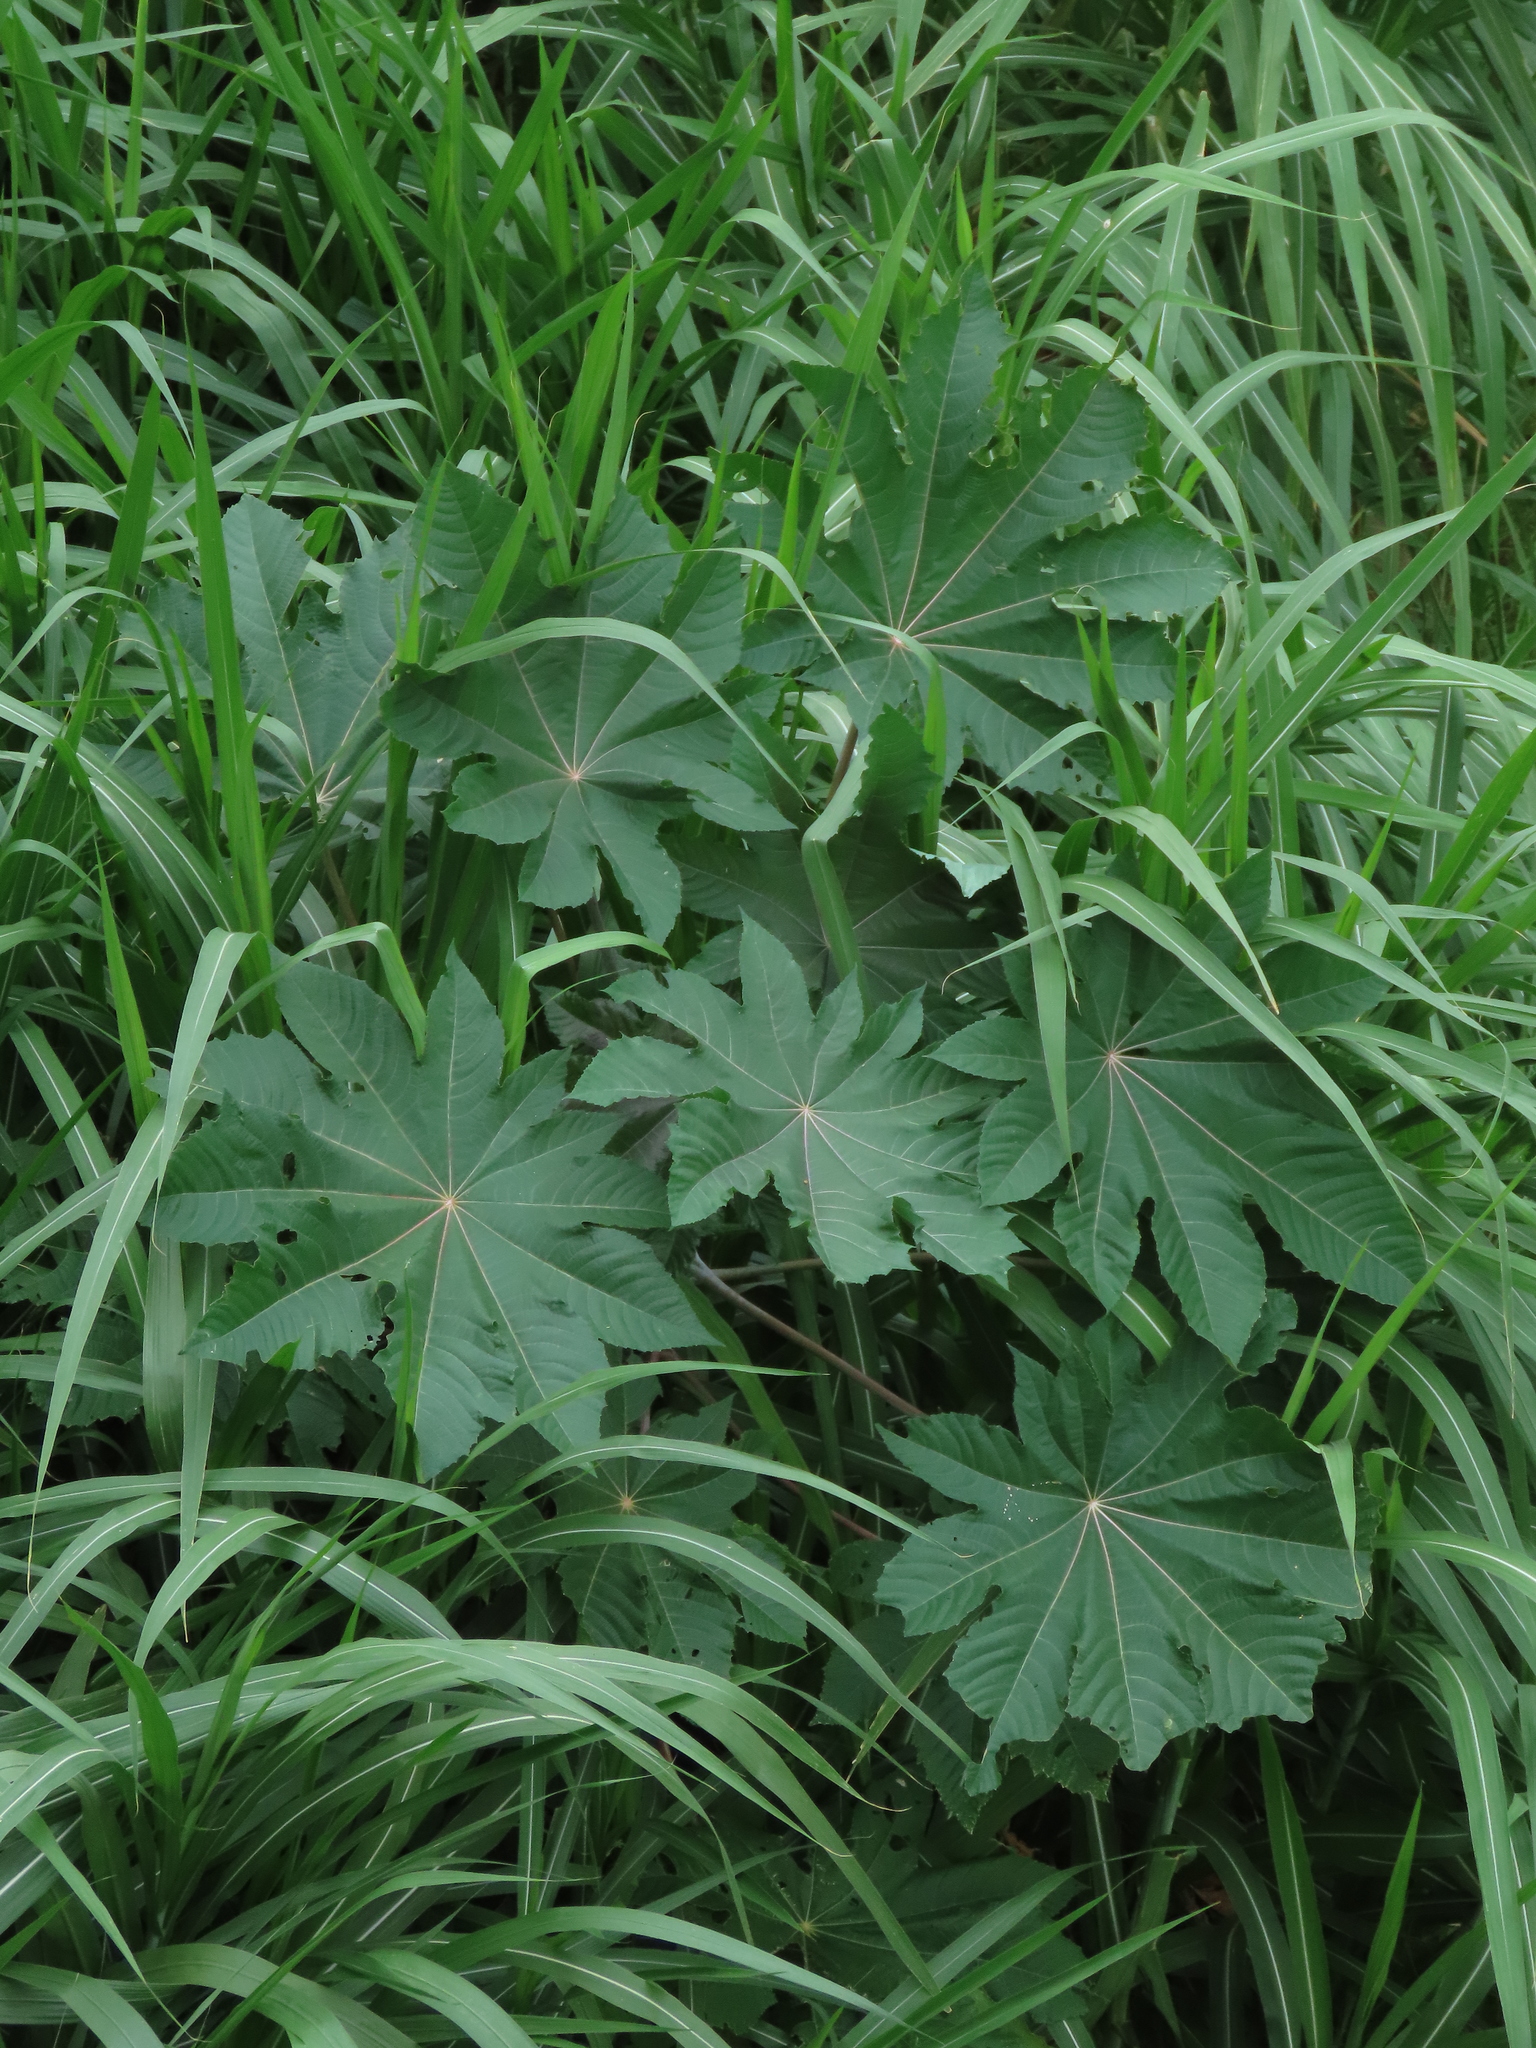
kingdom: Plantae
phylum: Tracheophyta
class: Magnoliopsida
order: Malpighiales
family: Euphorbiaceae
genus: Ricinus
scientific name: Ricinus communis
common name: Castor-oil-plant
